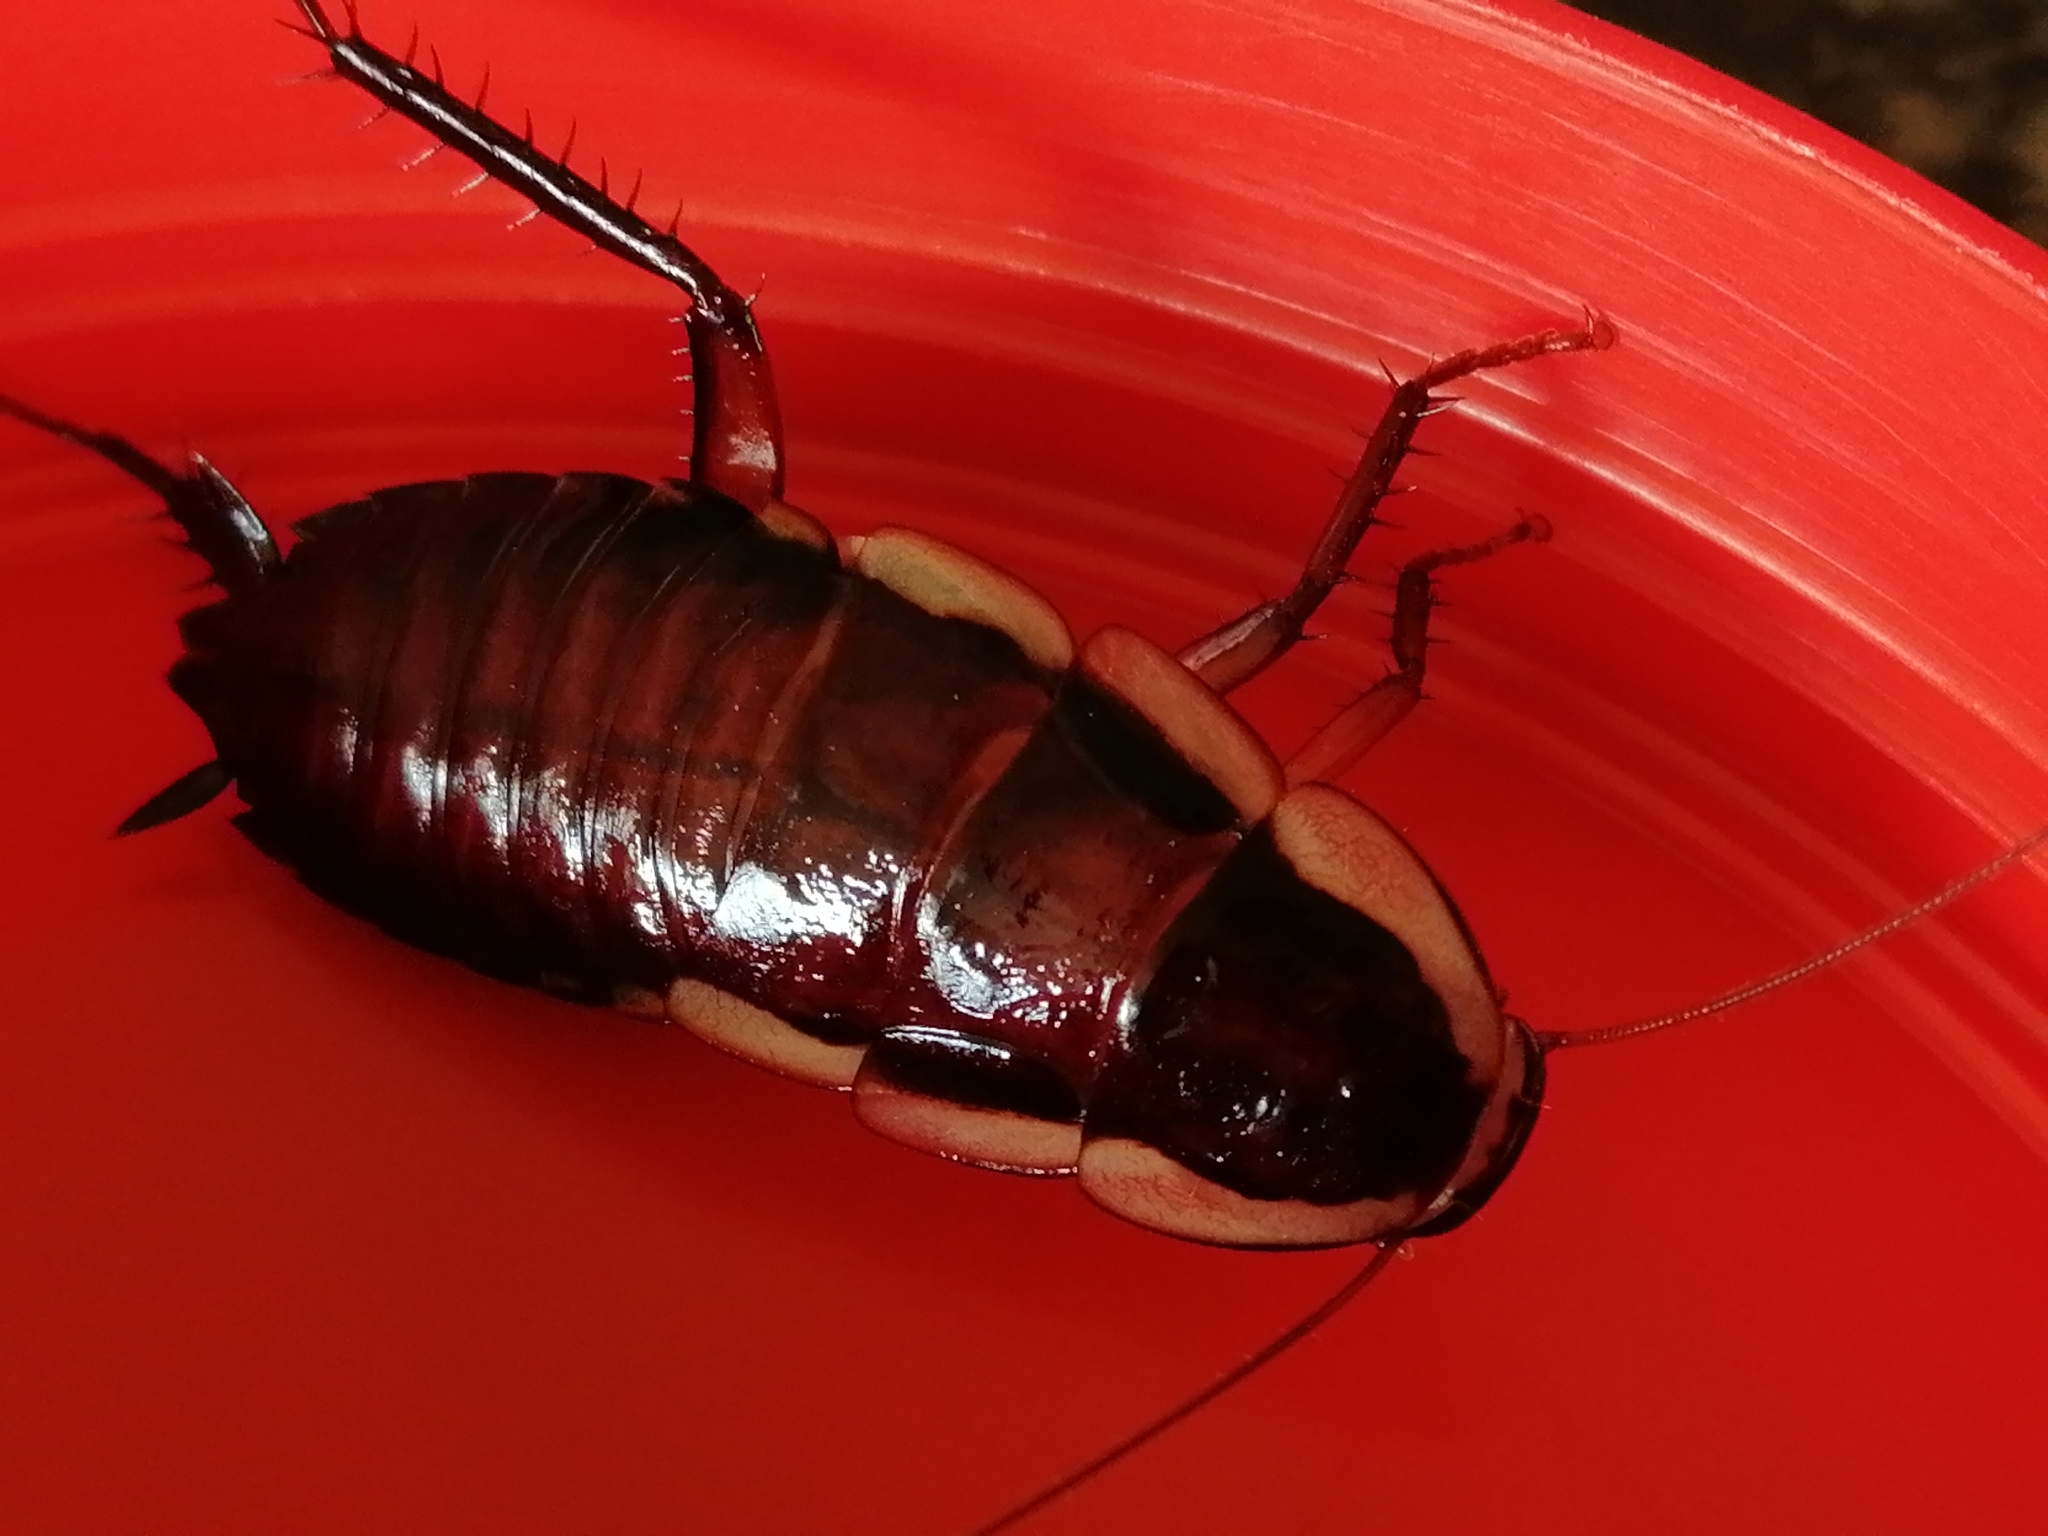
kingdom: Animalia
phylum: Arthropoda
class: Insecta
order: Blattodea
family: Blattidae
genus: Drymaplaneta
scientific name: Drymaplaneta semivitta
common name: Gisborne cockroach
